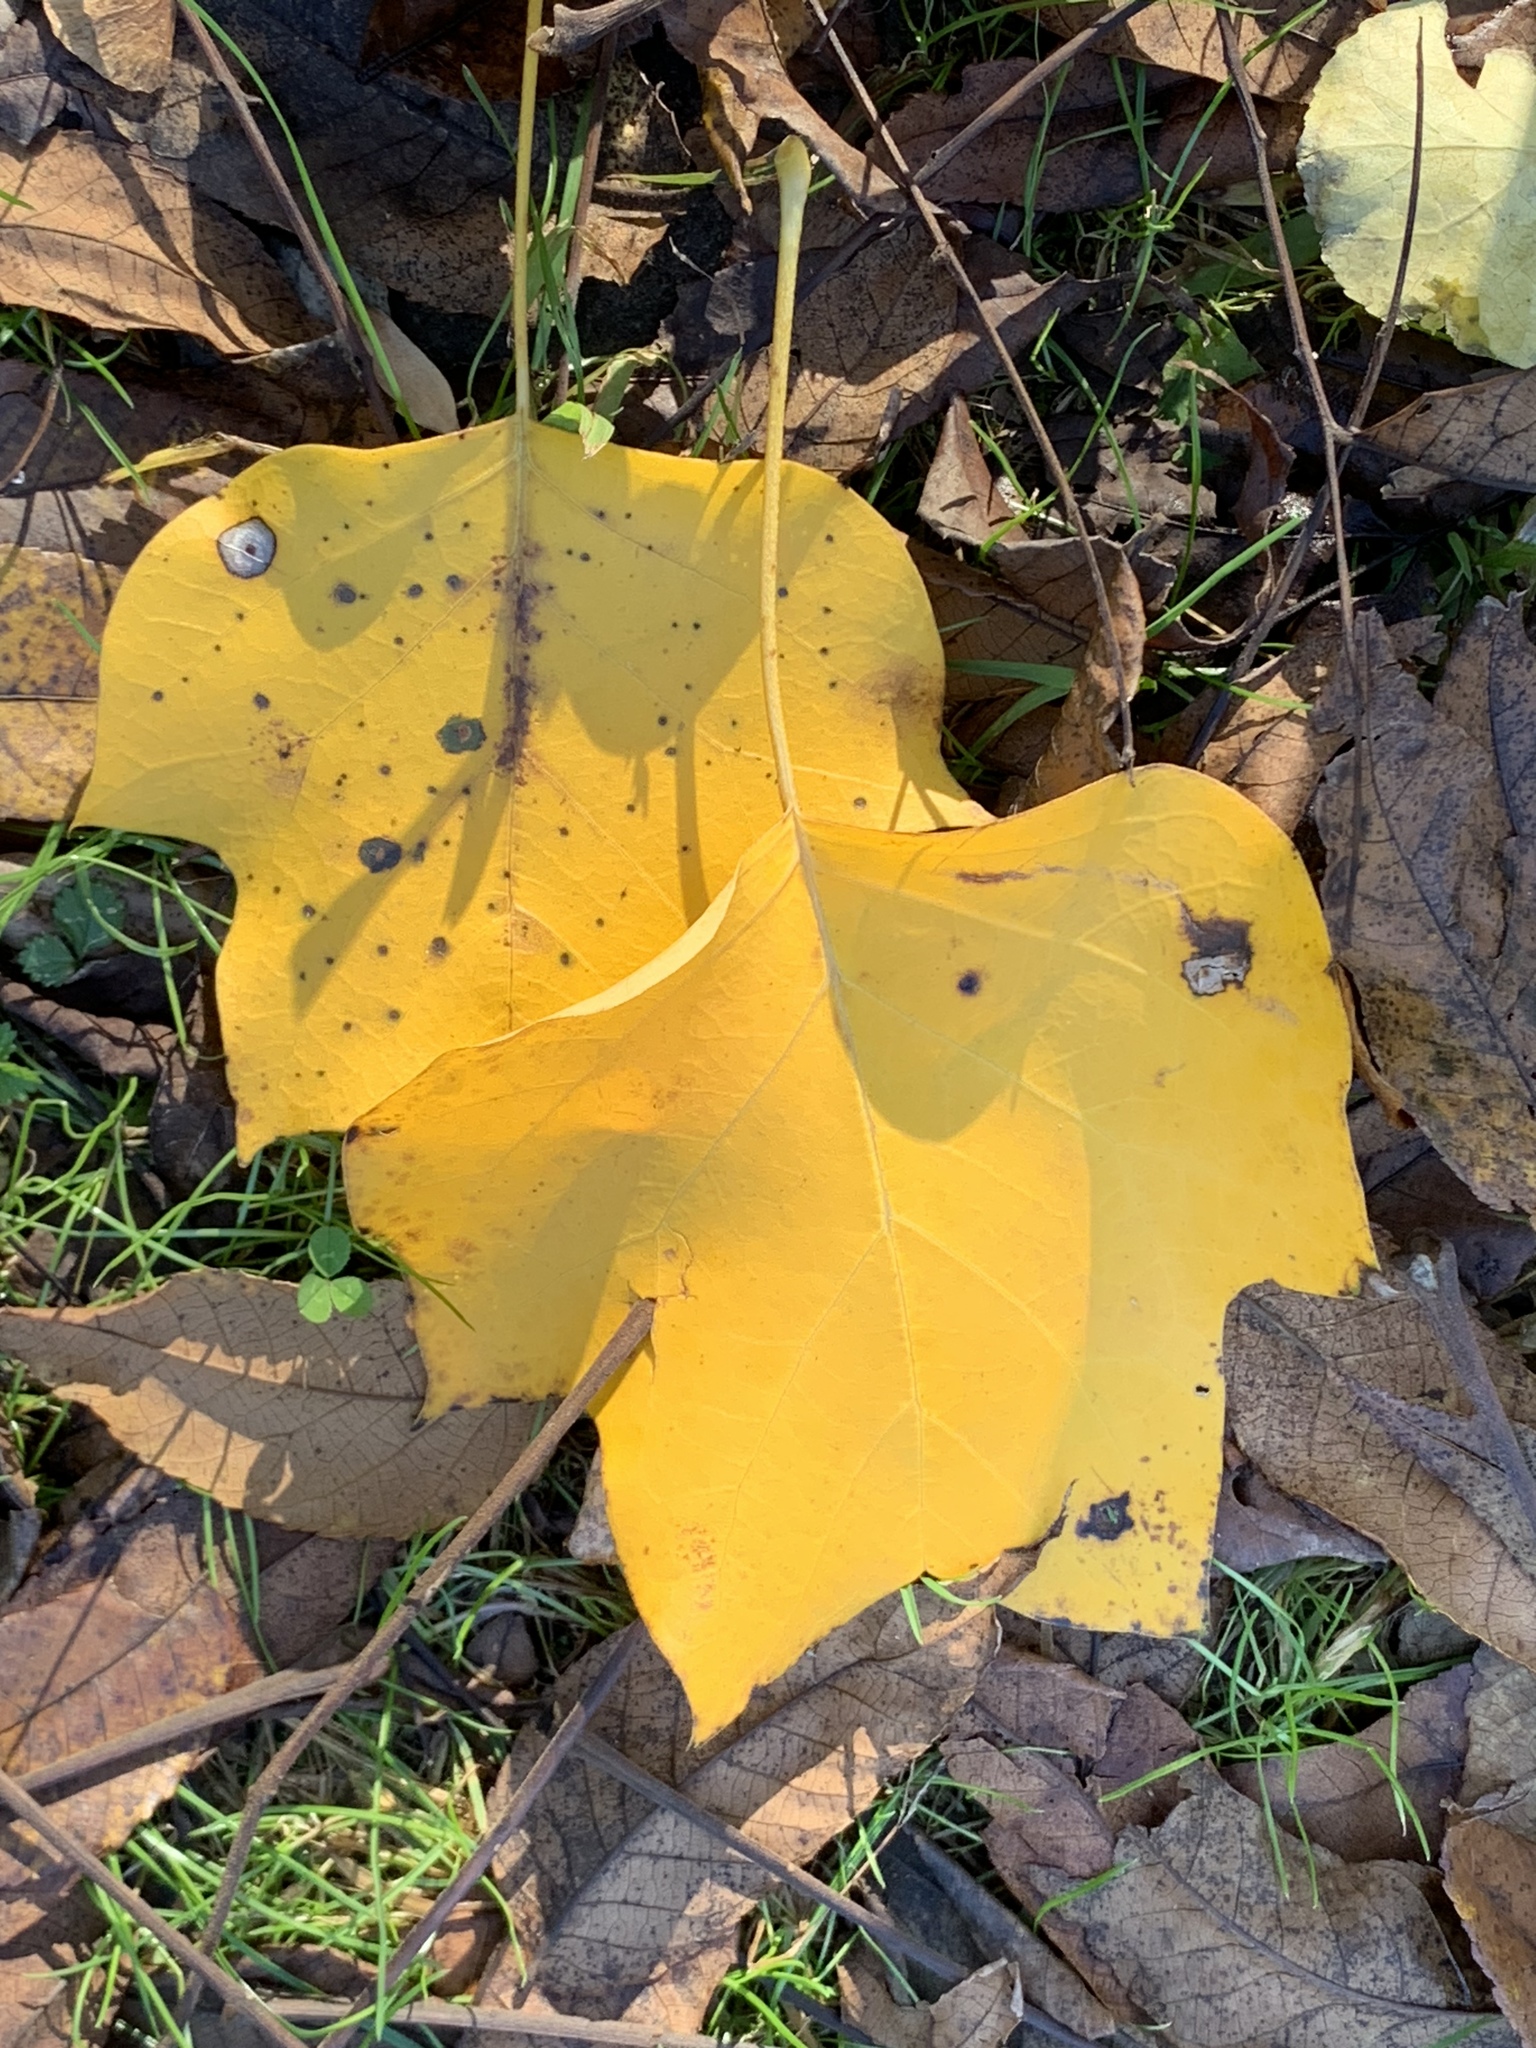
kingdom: Plantae
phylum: Tracheophyta
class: Magnoliopsida
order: Magnoliales
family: Magnoliaceae
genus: Liriodendron
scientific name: Liriodendron tulipifera
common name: Tulip tree
